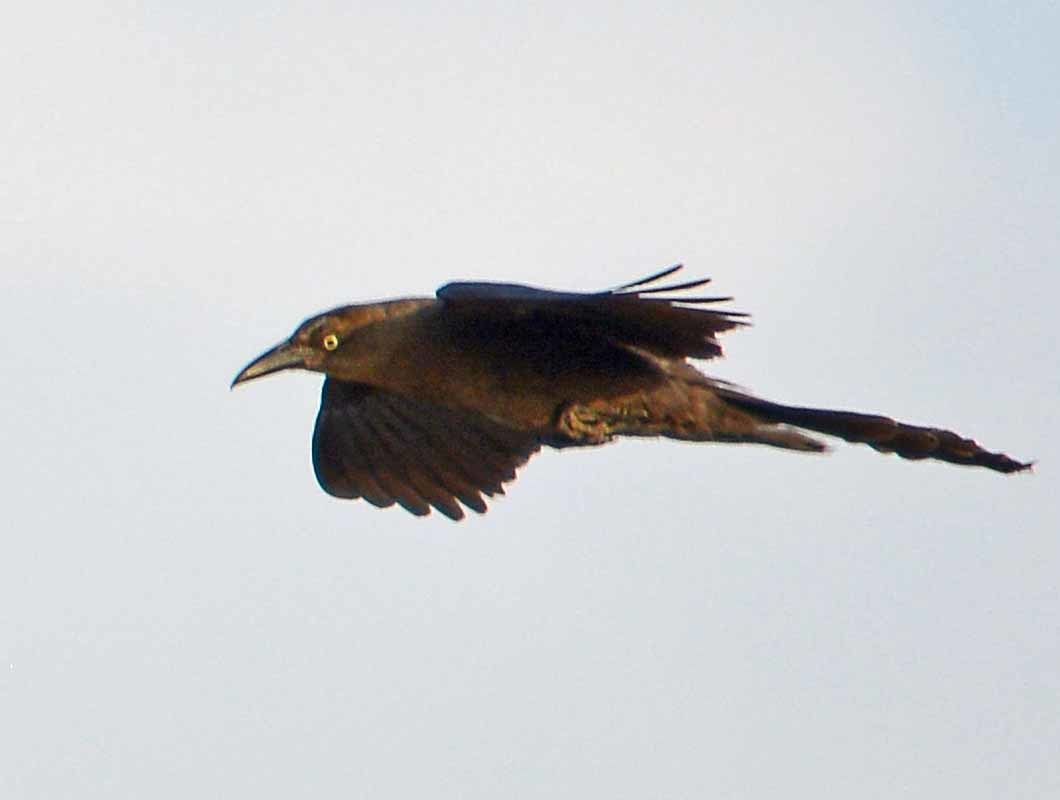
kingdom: Animalia
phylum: Chordata
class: Aves
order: Passeriformes
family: Icteridae
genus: Quiscalus
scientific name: Quiscalus mexicanus
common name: Great-tailed grackle
